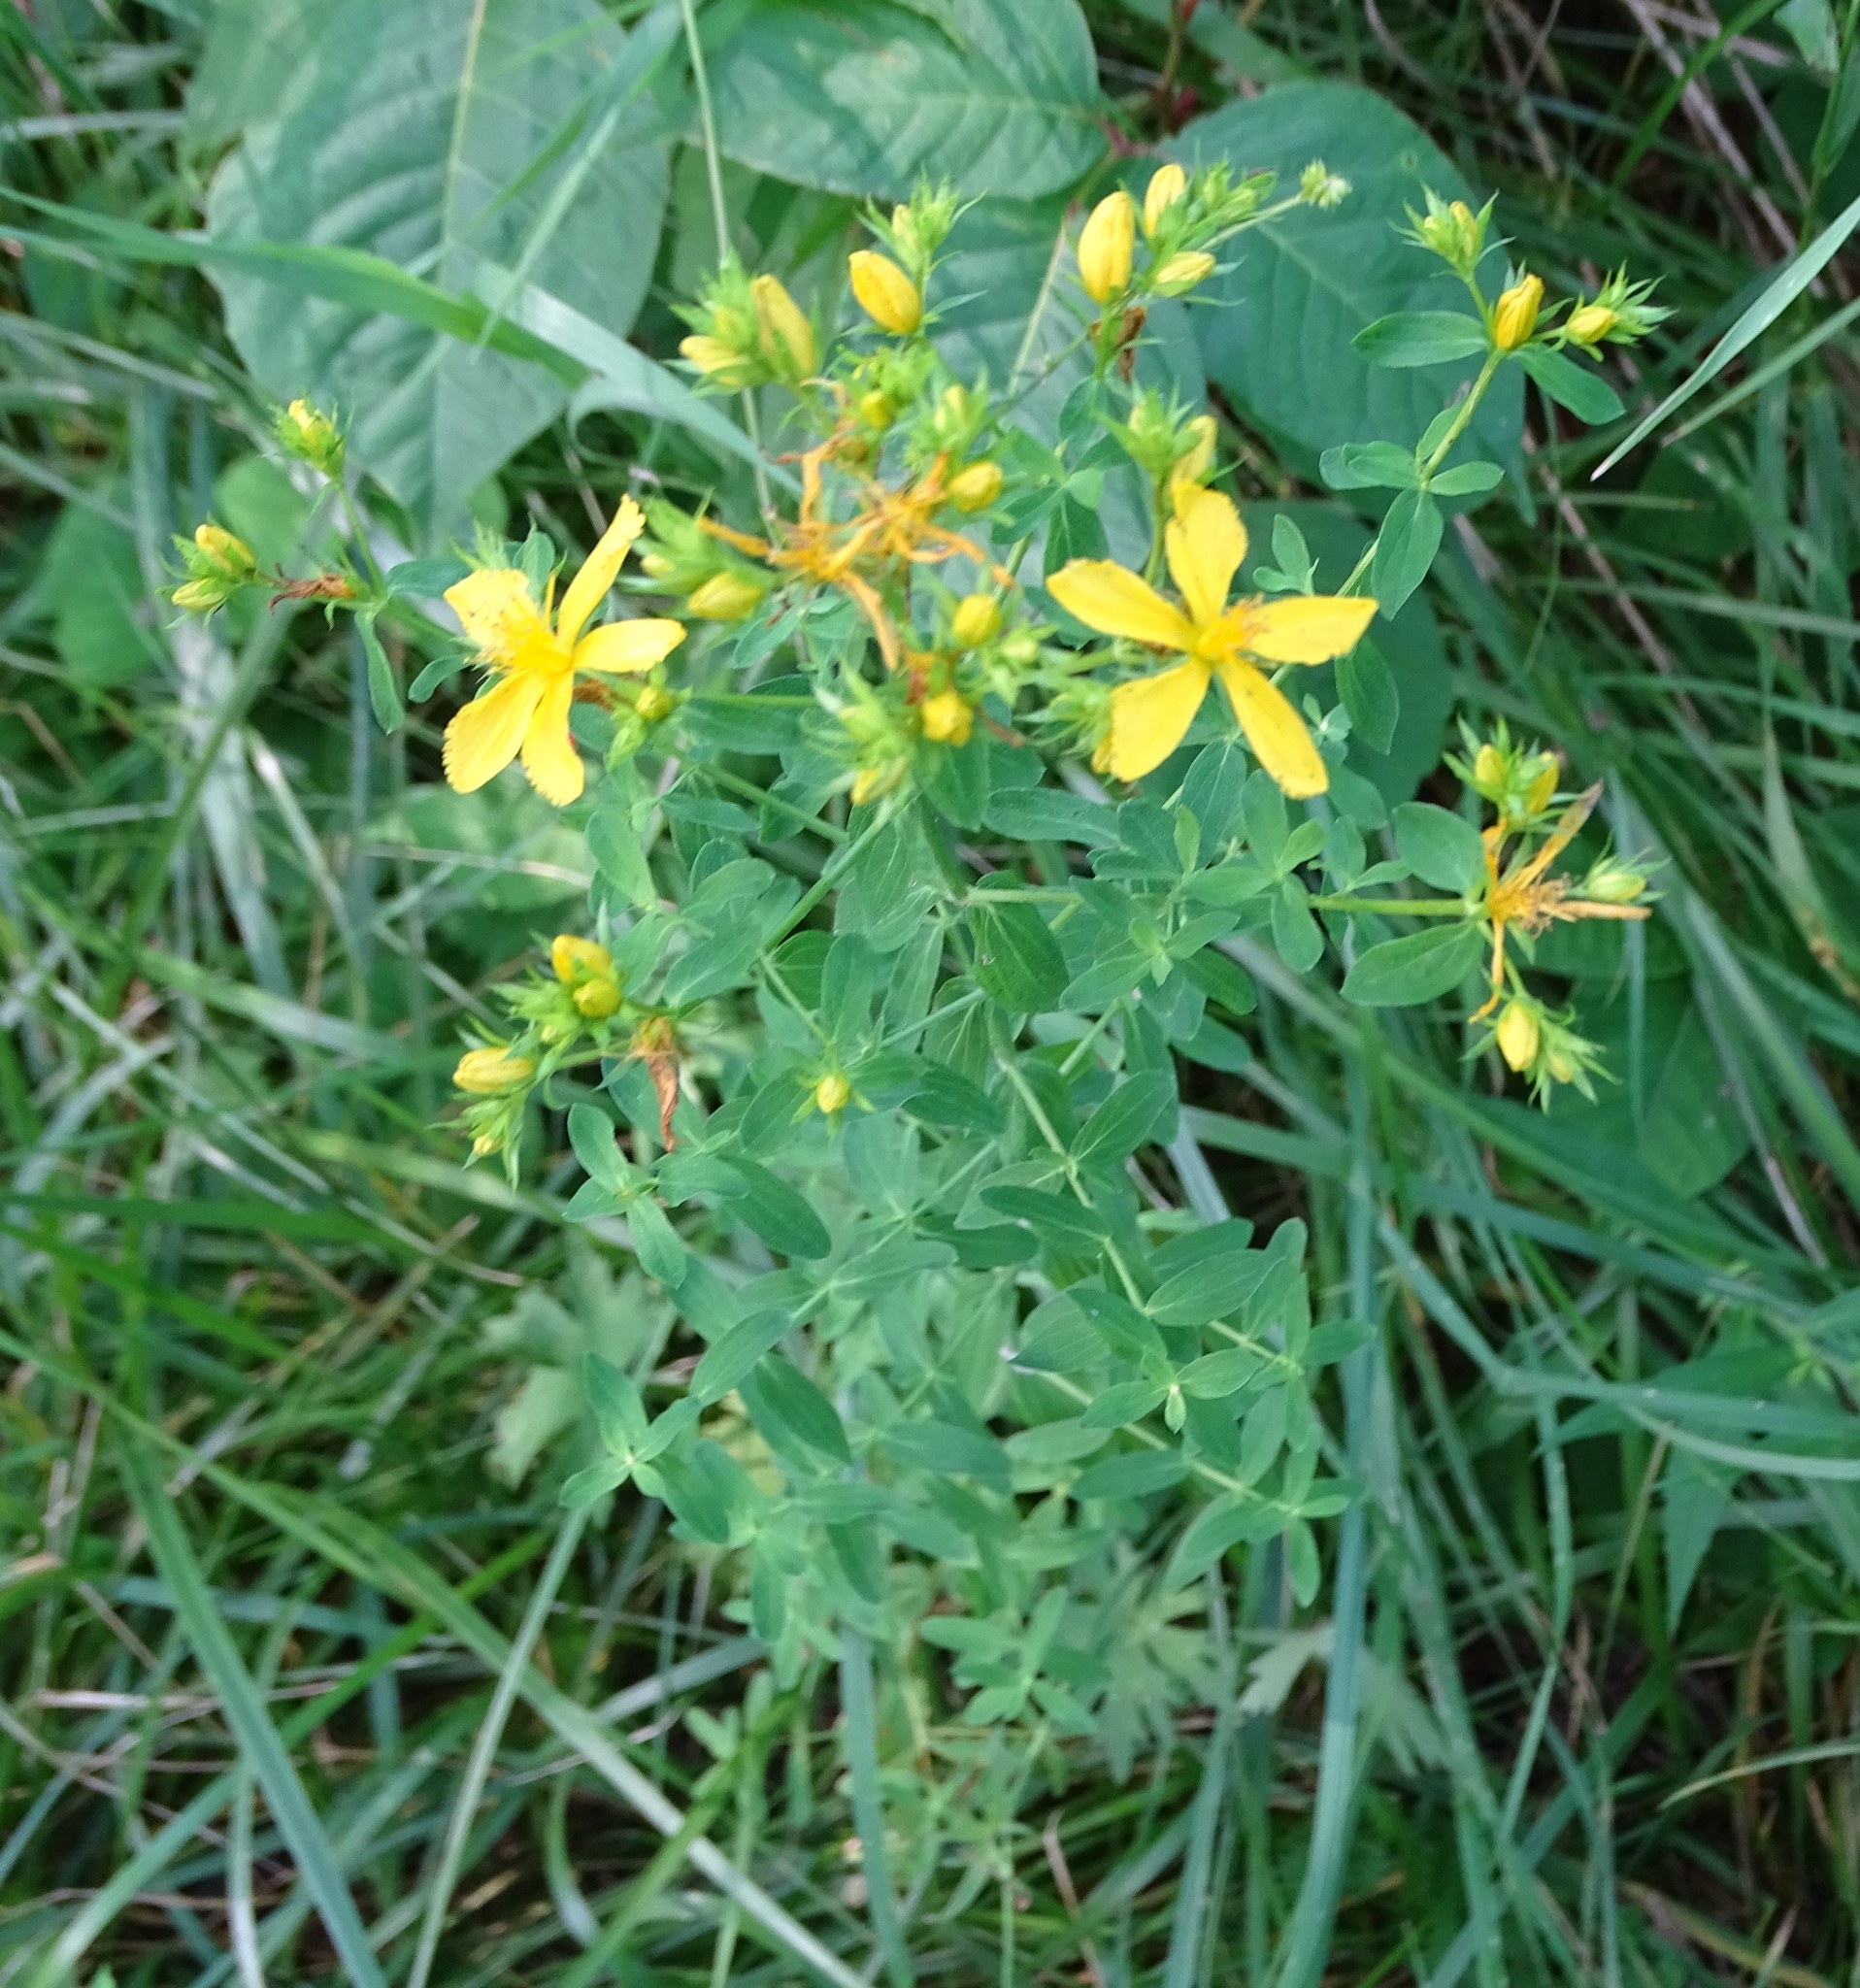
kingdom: Plantae
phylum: Tracheophyta
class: Magnoliopsida
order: Malpighiales
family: Hypericaceae
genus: Hypericum
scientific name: Hypericum perforatum
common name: Common st. johnswort
